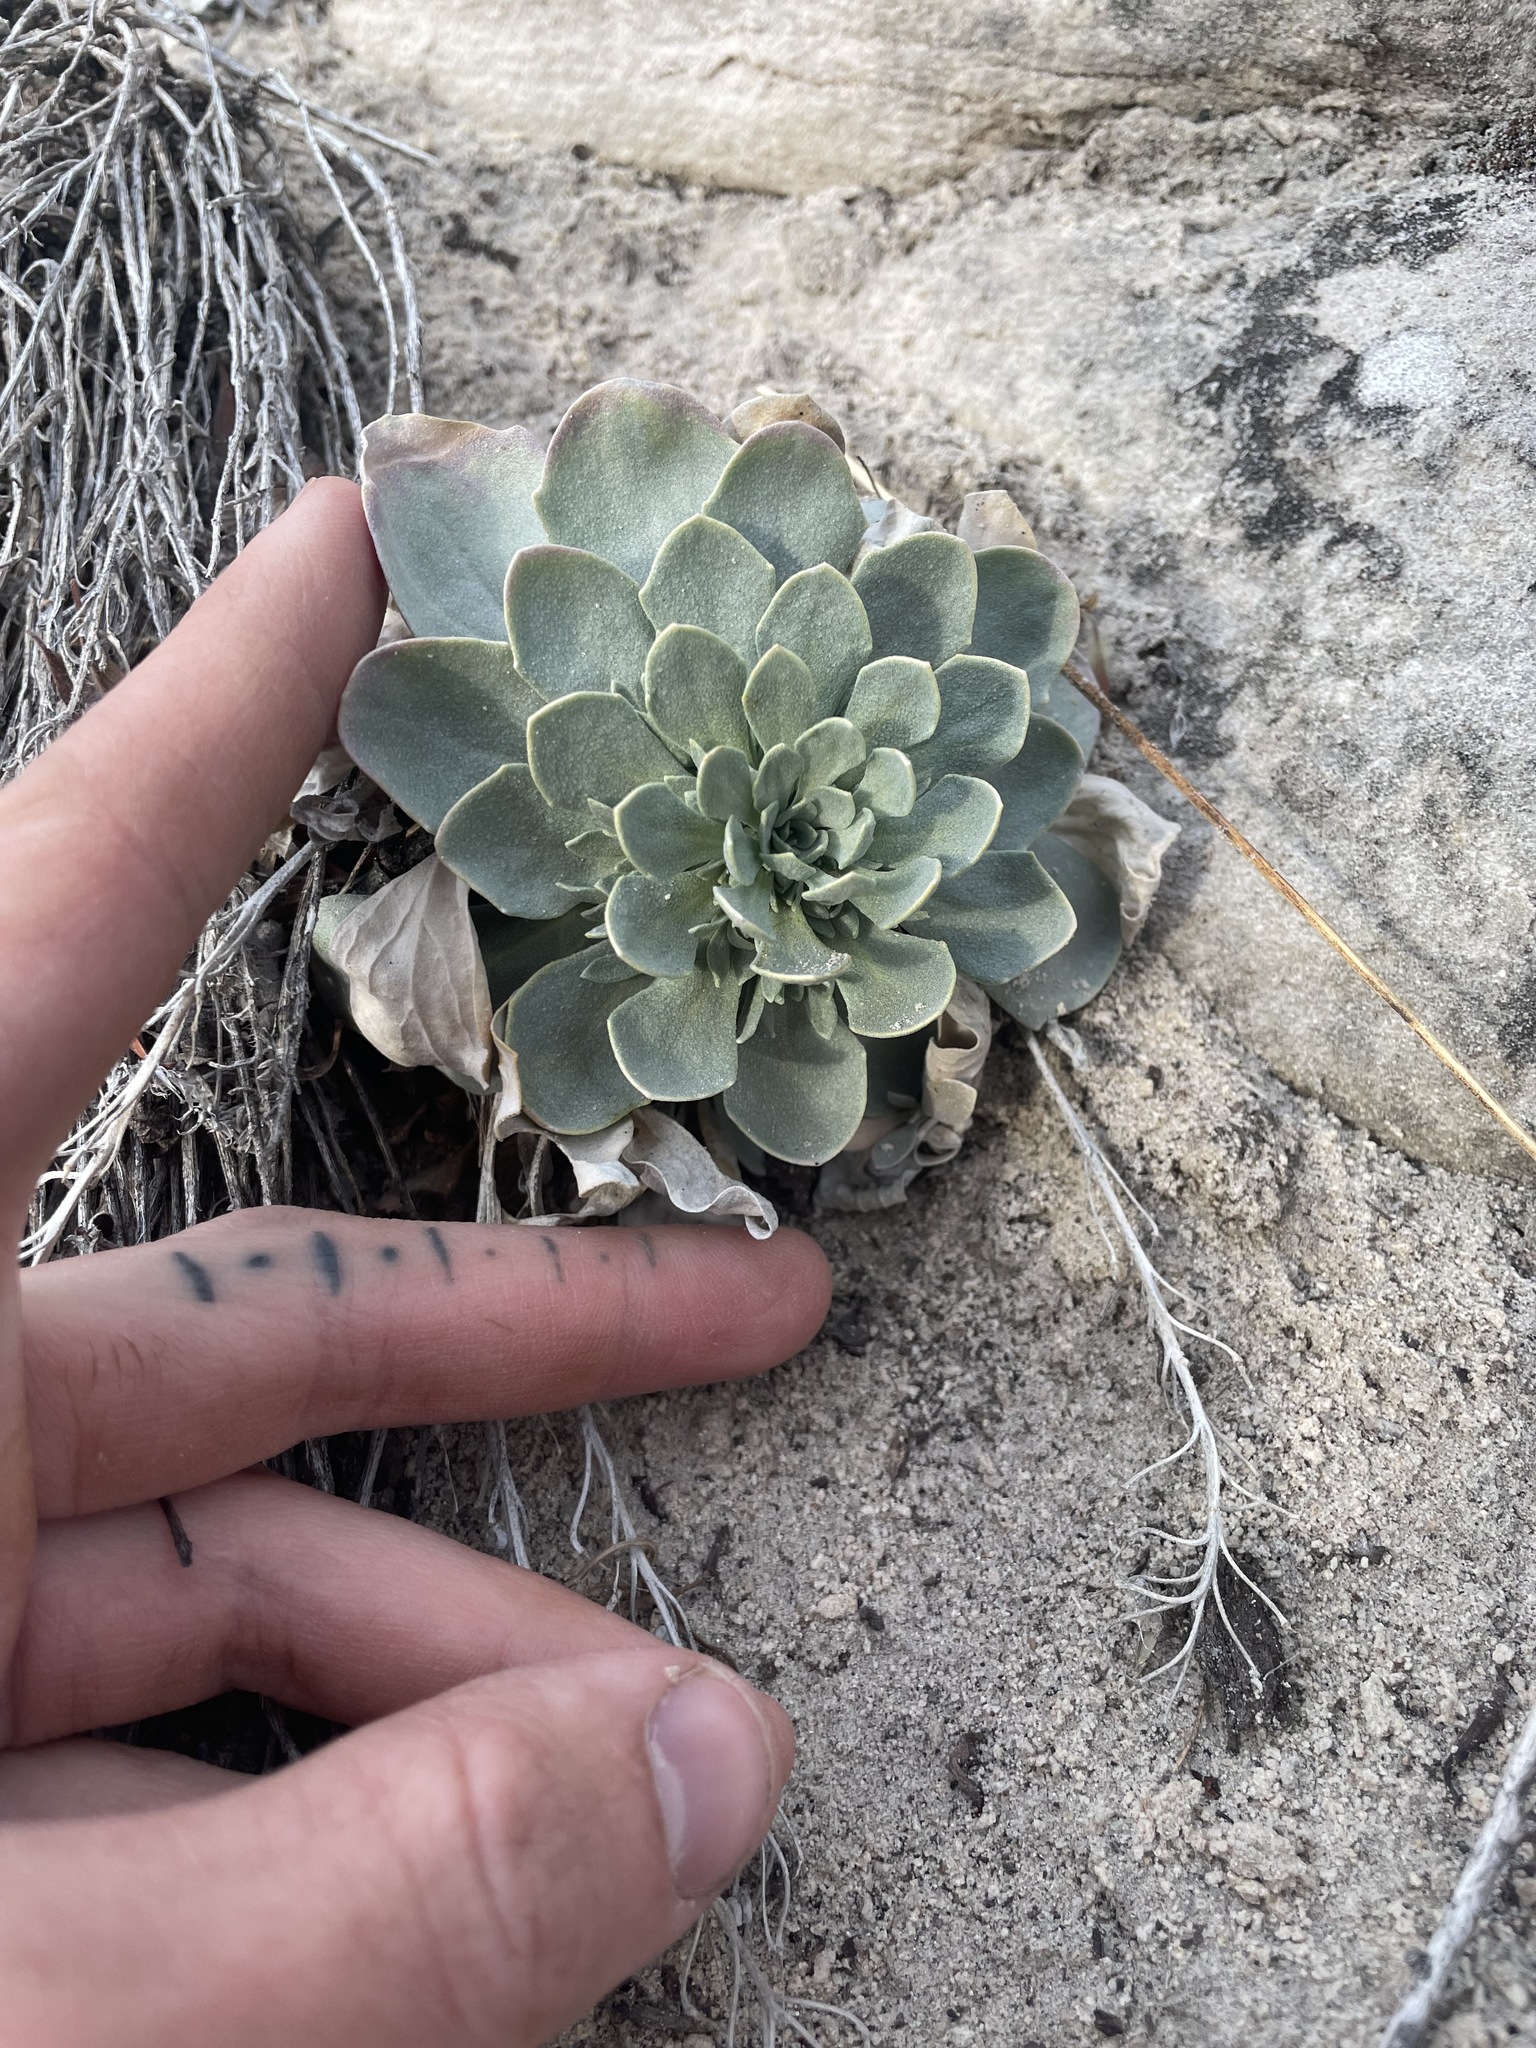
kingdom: Plantae
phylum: Tracheophyta
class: Magnoliopsida
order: Brassicales
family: Brassicaceae
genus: Physaria
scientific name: Physaria bellii
